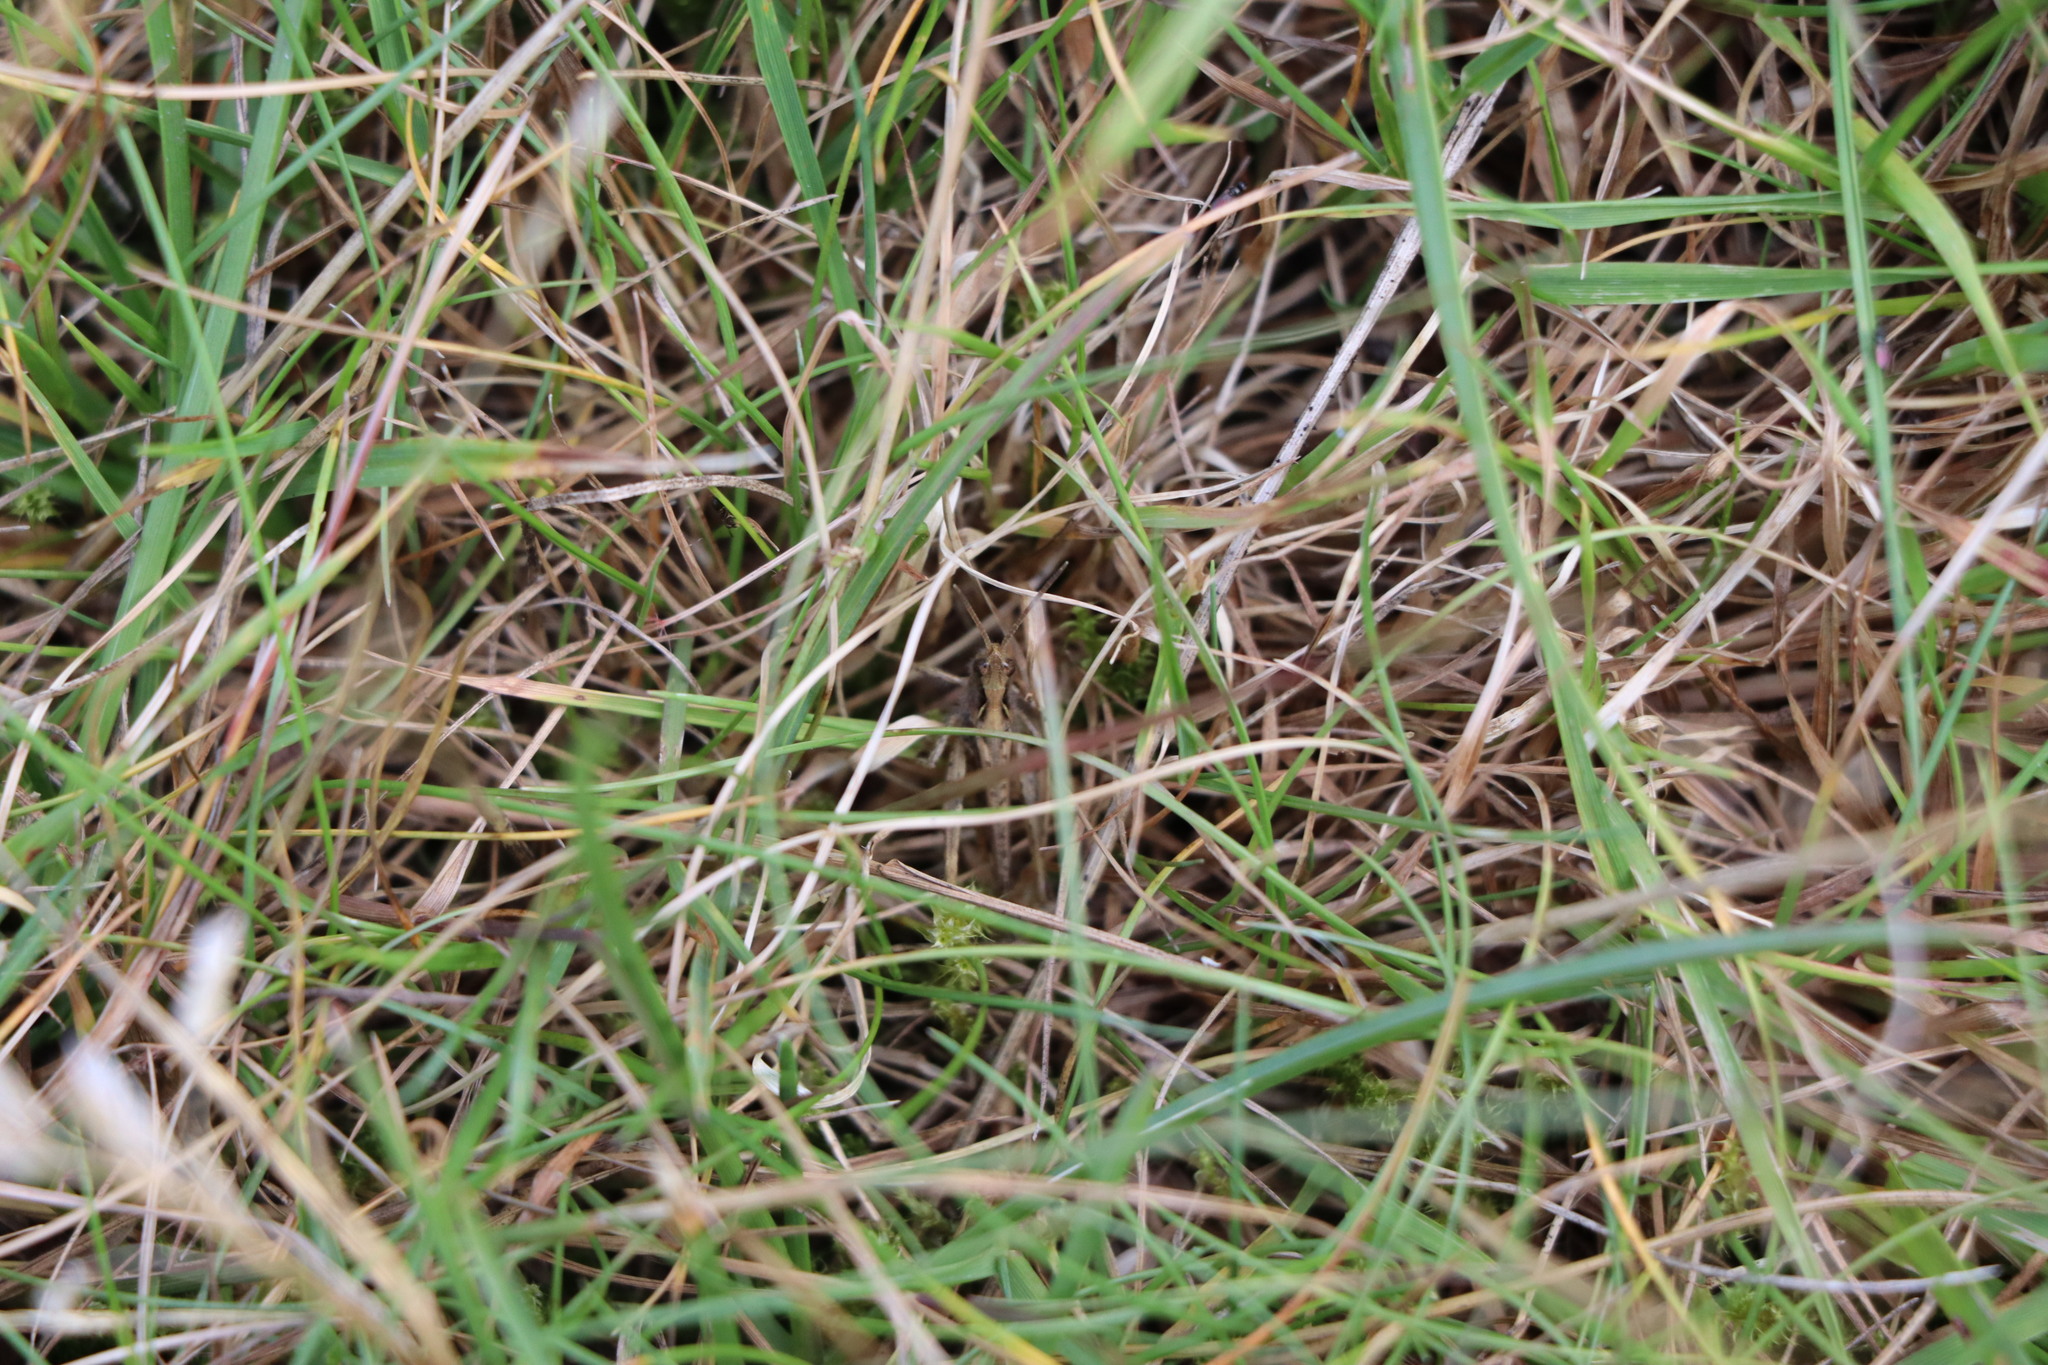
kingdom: Animalia
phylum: Arthropoda
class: Insecta
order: Orthoptera
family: Acrididae
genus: Chorthippus
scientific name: Chorthippus brunneus
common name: Field grasshopper
